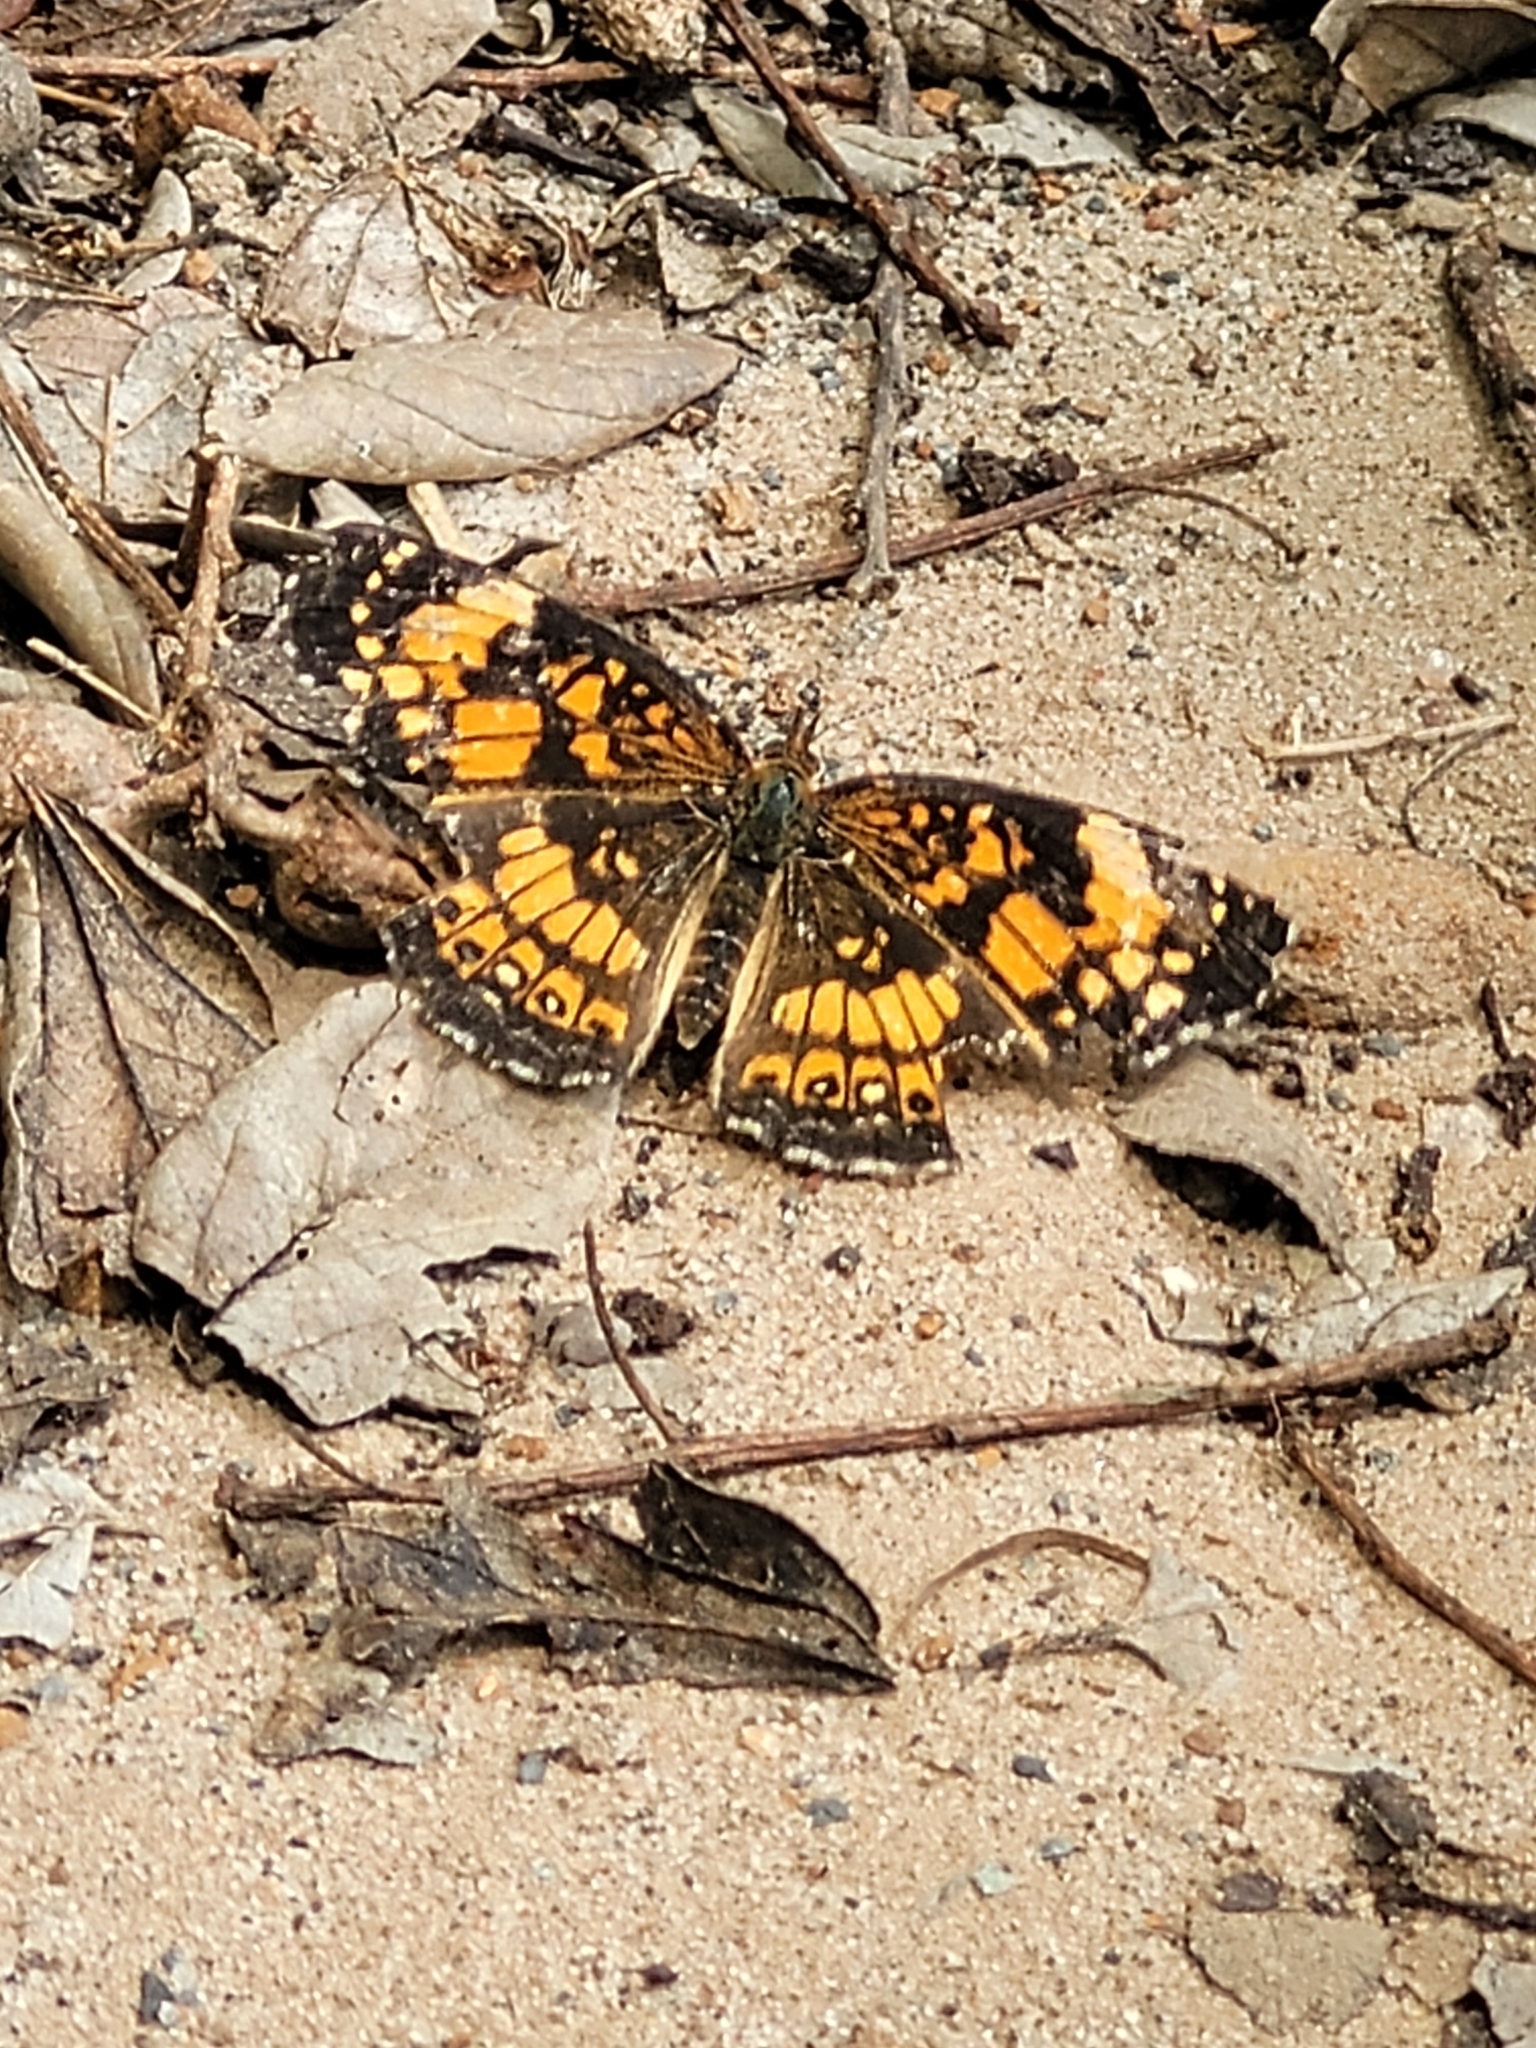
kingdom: Animalia
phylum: Arthropoda
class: Insecta
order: Lepidoptera
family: Nymphalidae
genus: Chlosyne
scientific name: Chlosyne nycteis
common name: Silvery checkerspot
